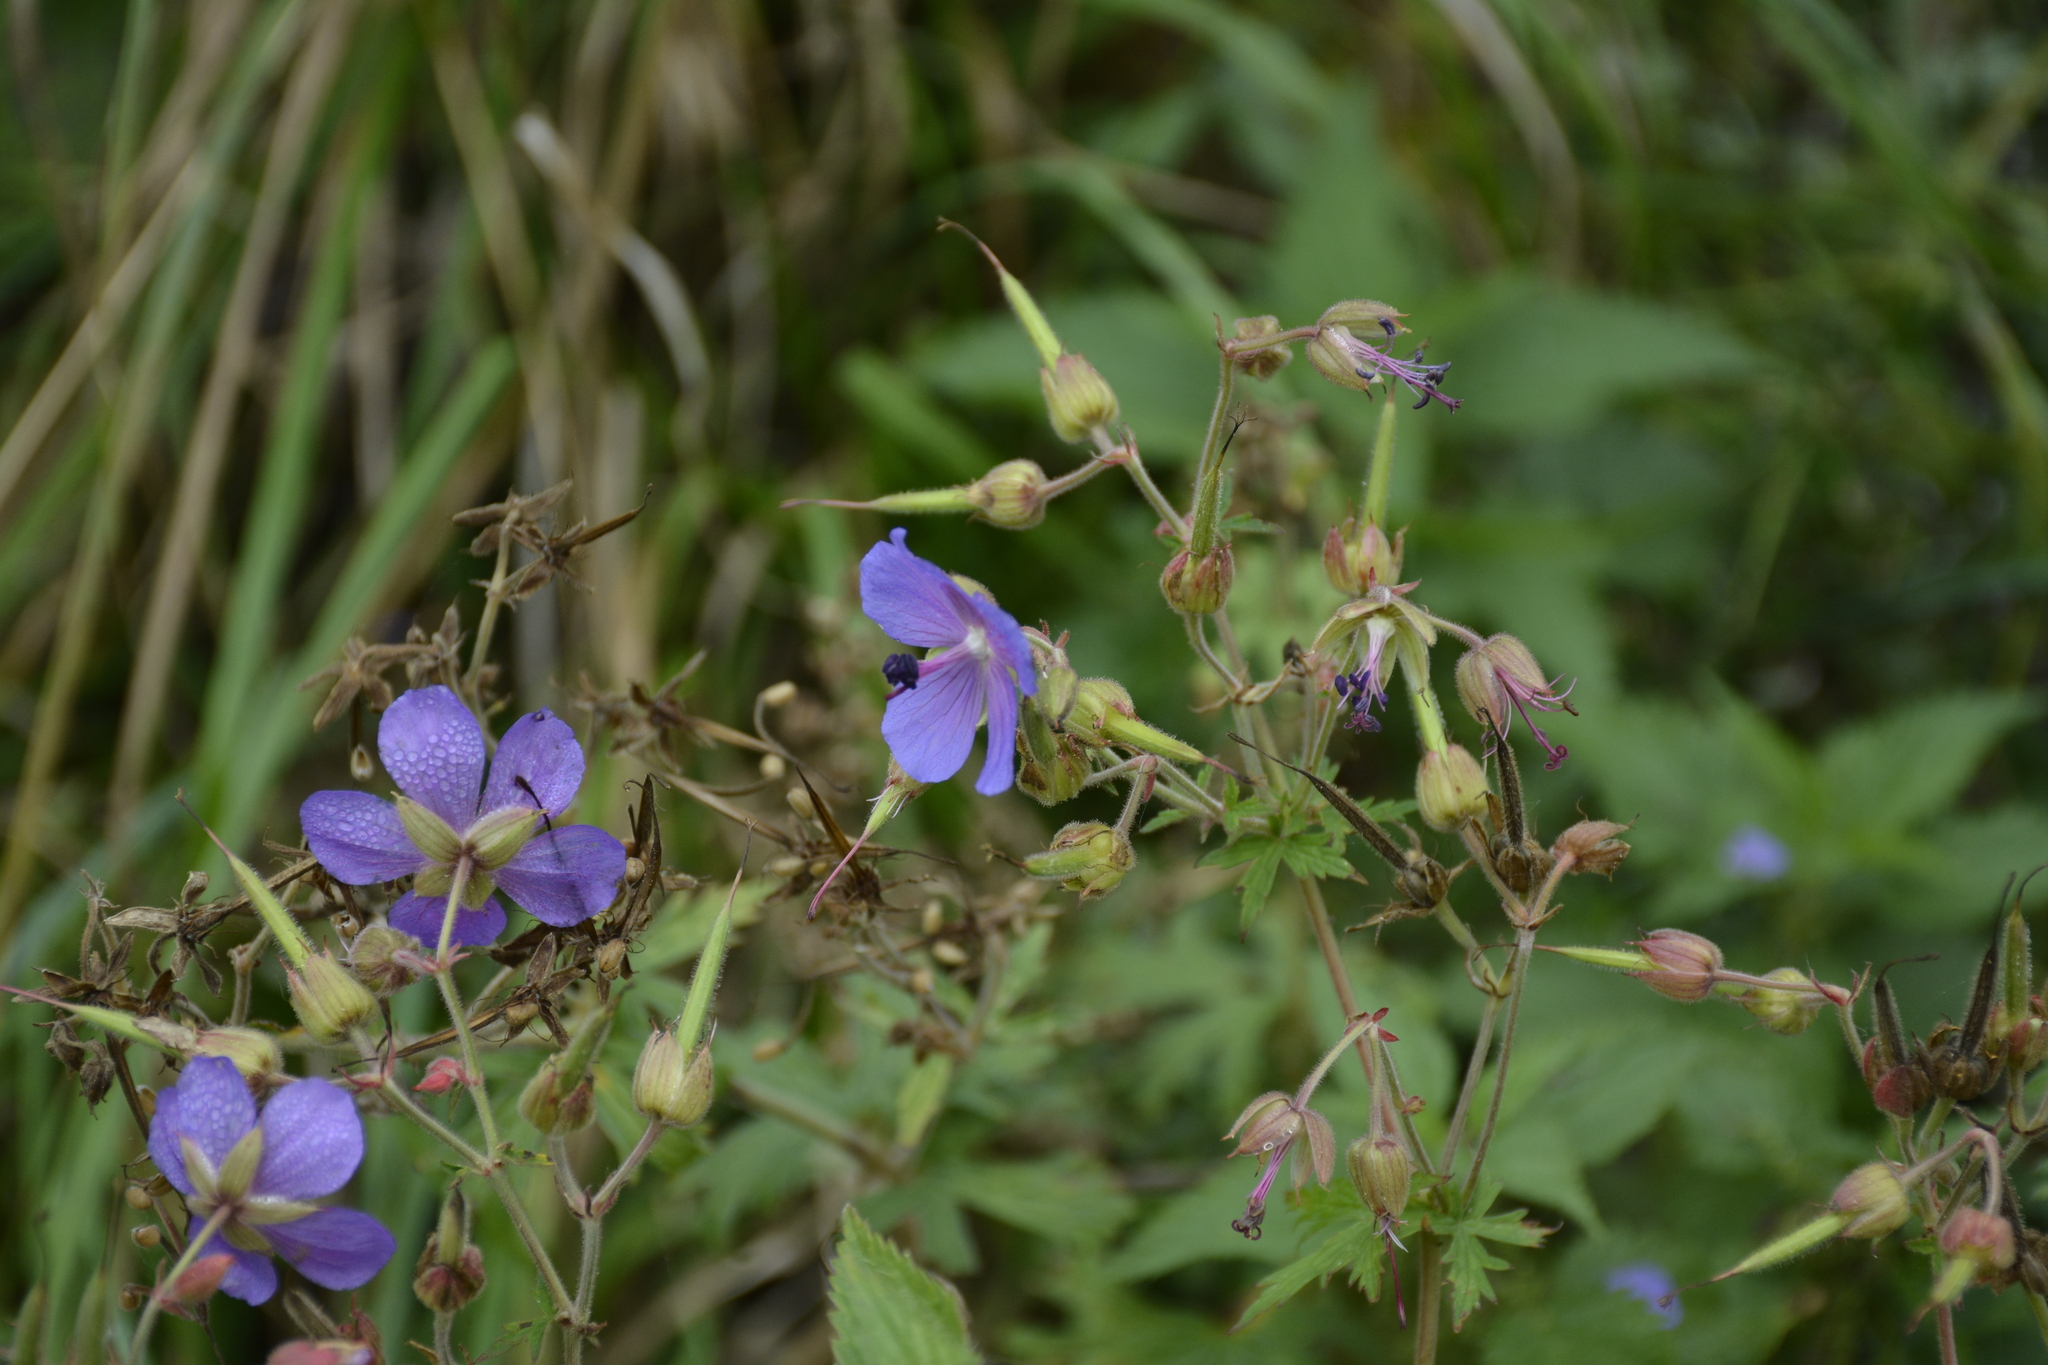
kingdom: Plantae
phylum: Tracheophyta
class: Magnoliopsida
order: Geraniales
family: Geraniaceae
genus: Geranium
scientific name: Geranium pratense
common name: Meadow crane's-bill
